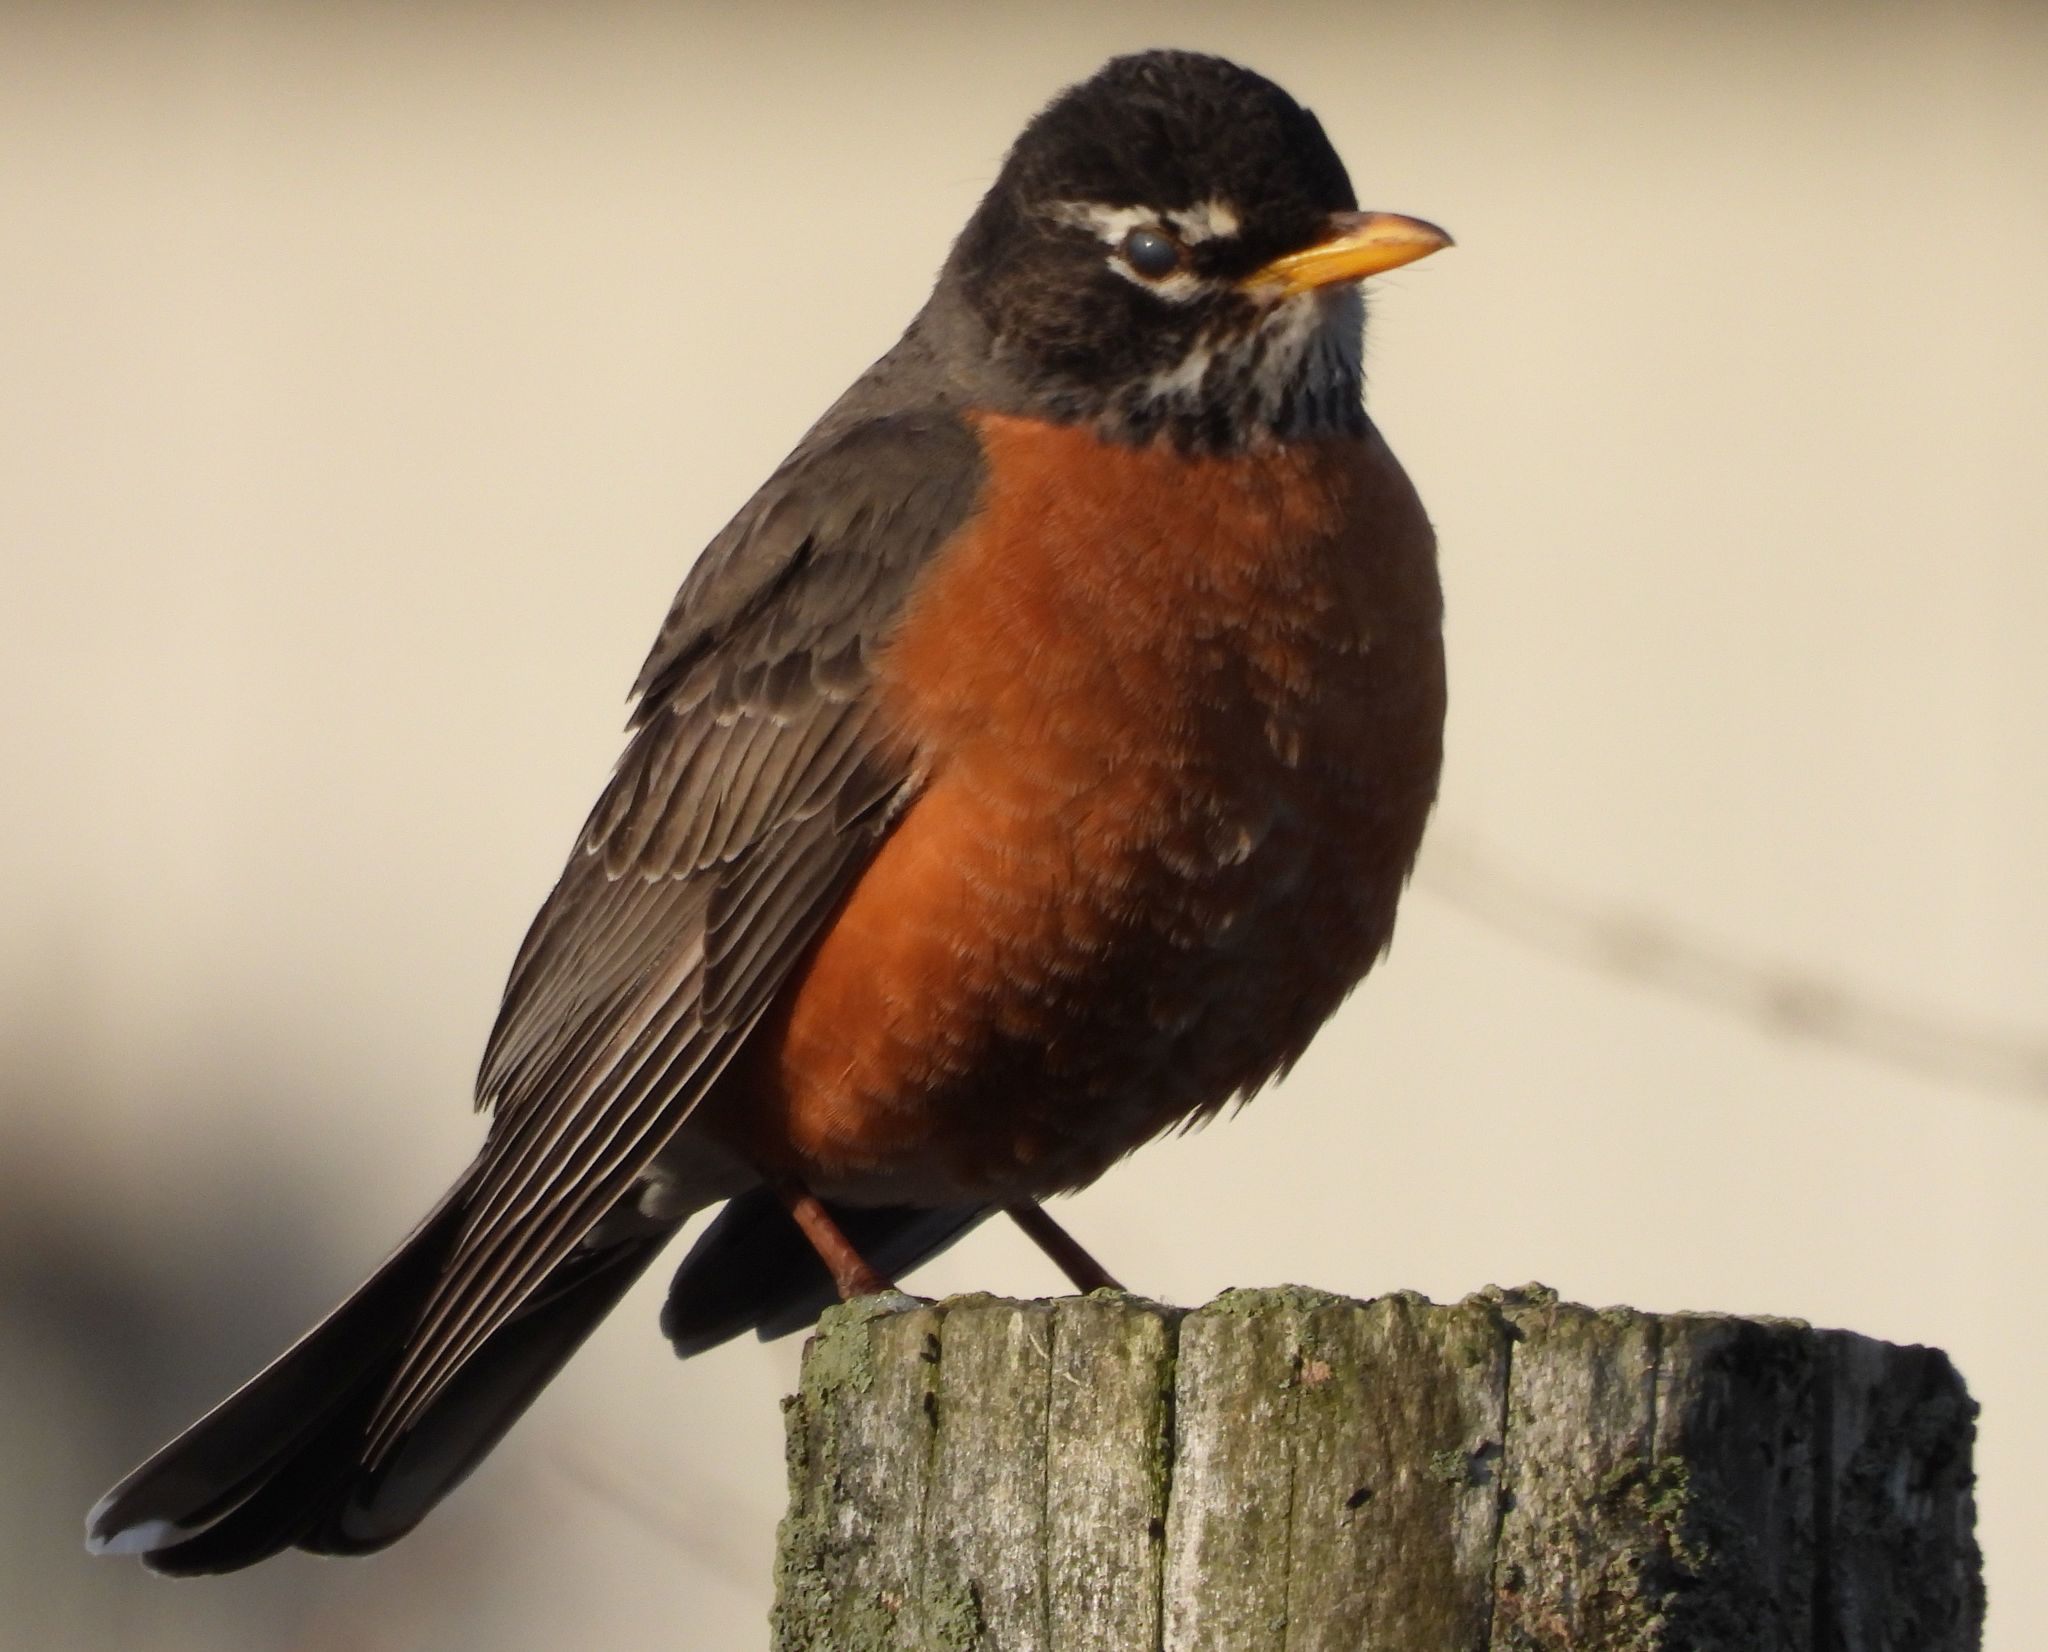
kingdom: Animalia
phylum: Chordata
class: Aves
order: Passeriformes
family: Turdidae
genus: Turdus
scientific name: Turdus migratorius
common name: American robin
